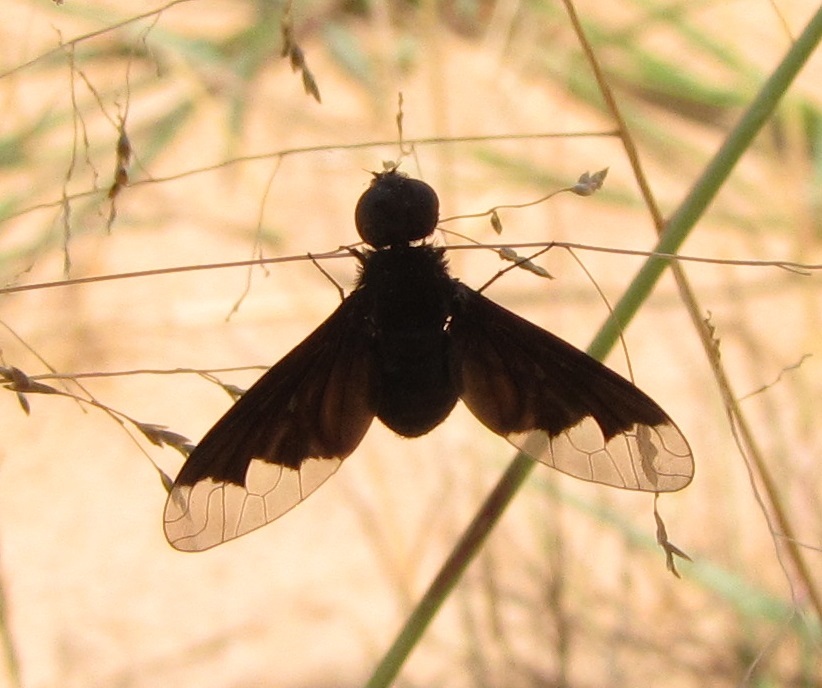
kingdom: Animalia
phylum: Arthropoda
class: Insecta
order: Diptera
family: Bombyliidae
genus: Anthrax
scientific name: Anthrax analis
